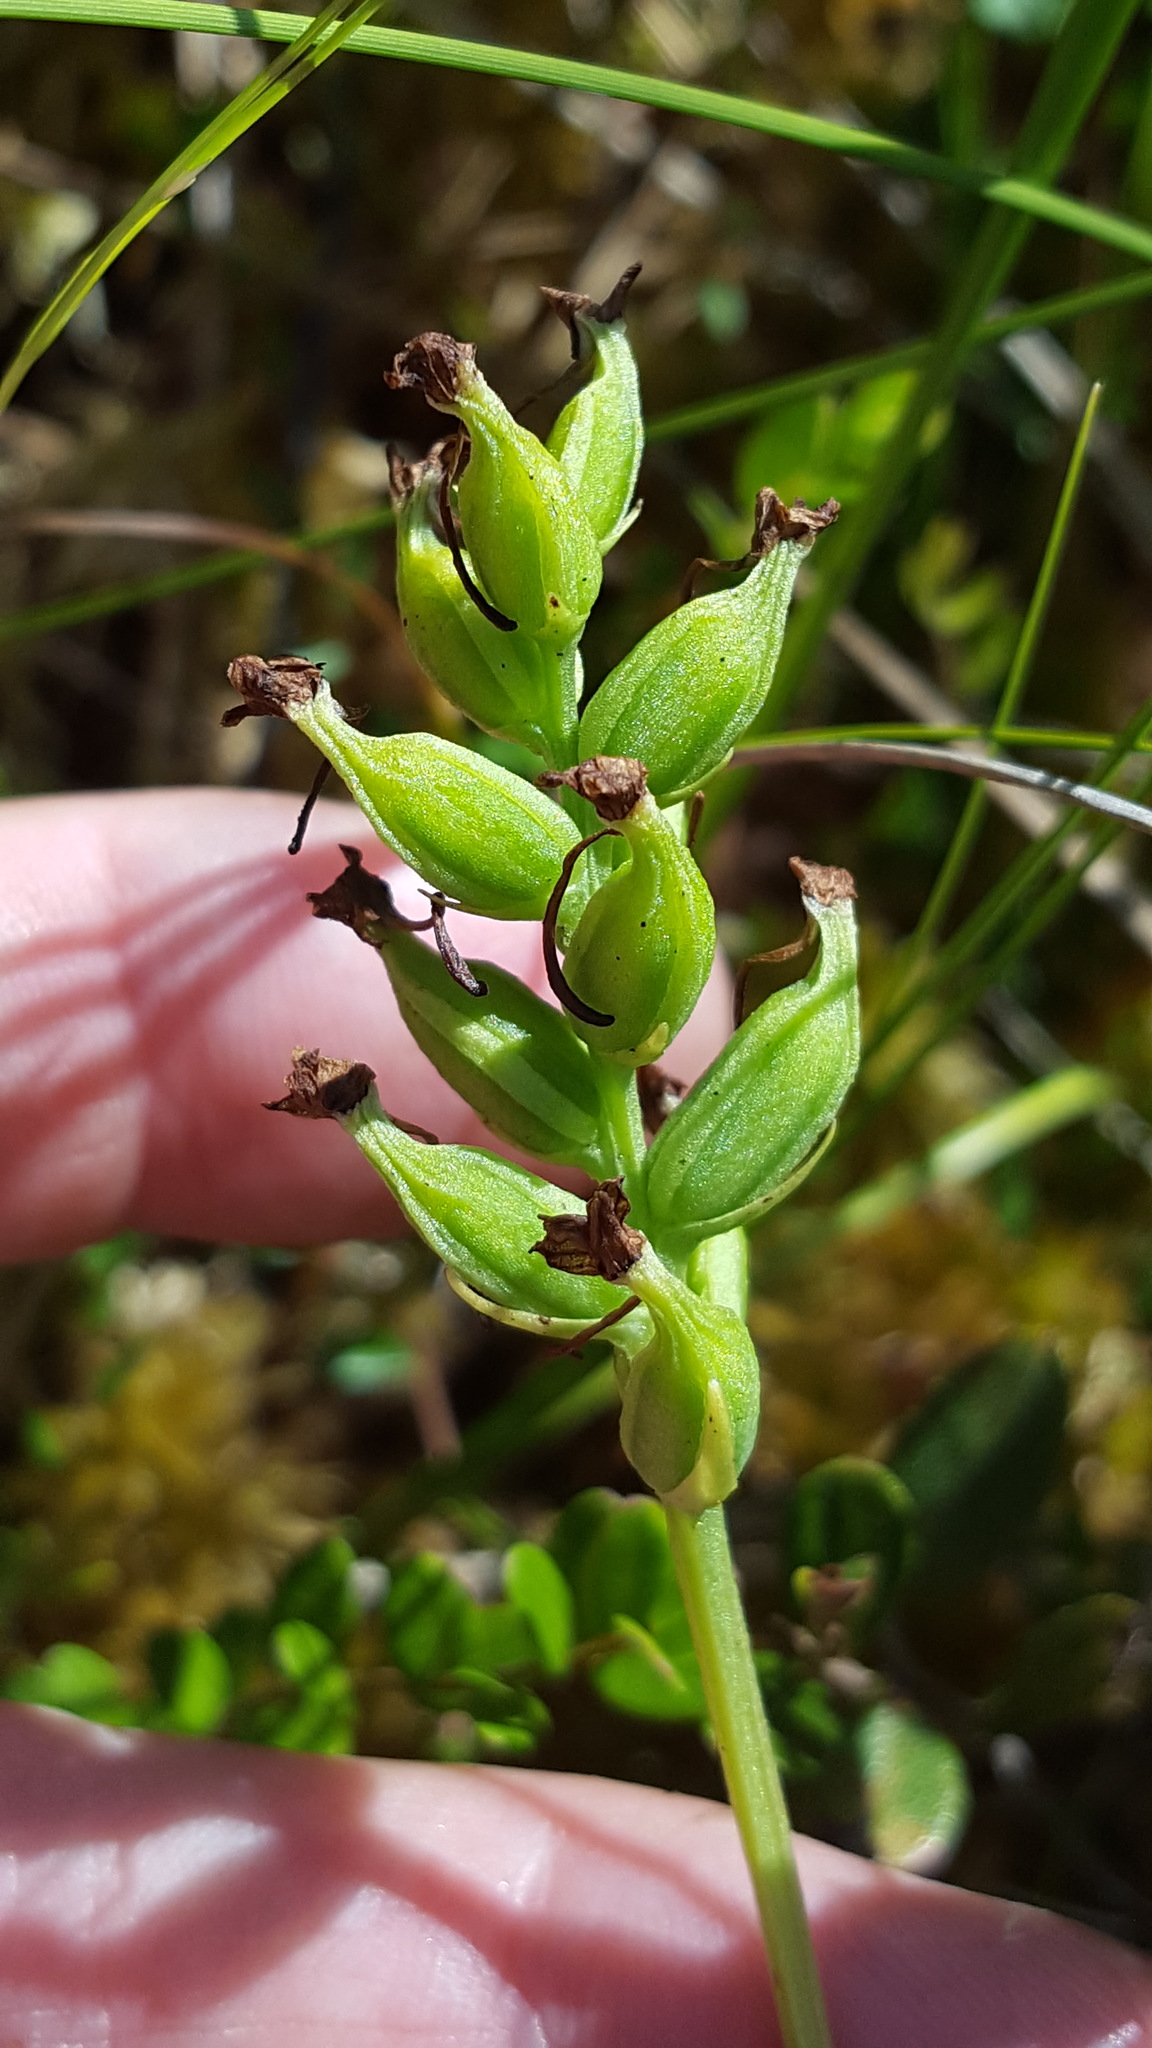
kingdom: Plantae
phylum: Tracheophyta
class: Liliopsida
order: Asparagales
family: Orchidaceae
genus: Platanthera
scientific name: Platanthera clavellata
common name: Club-spur orchid
